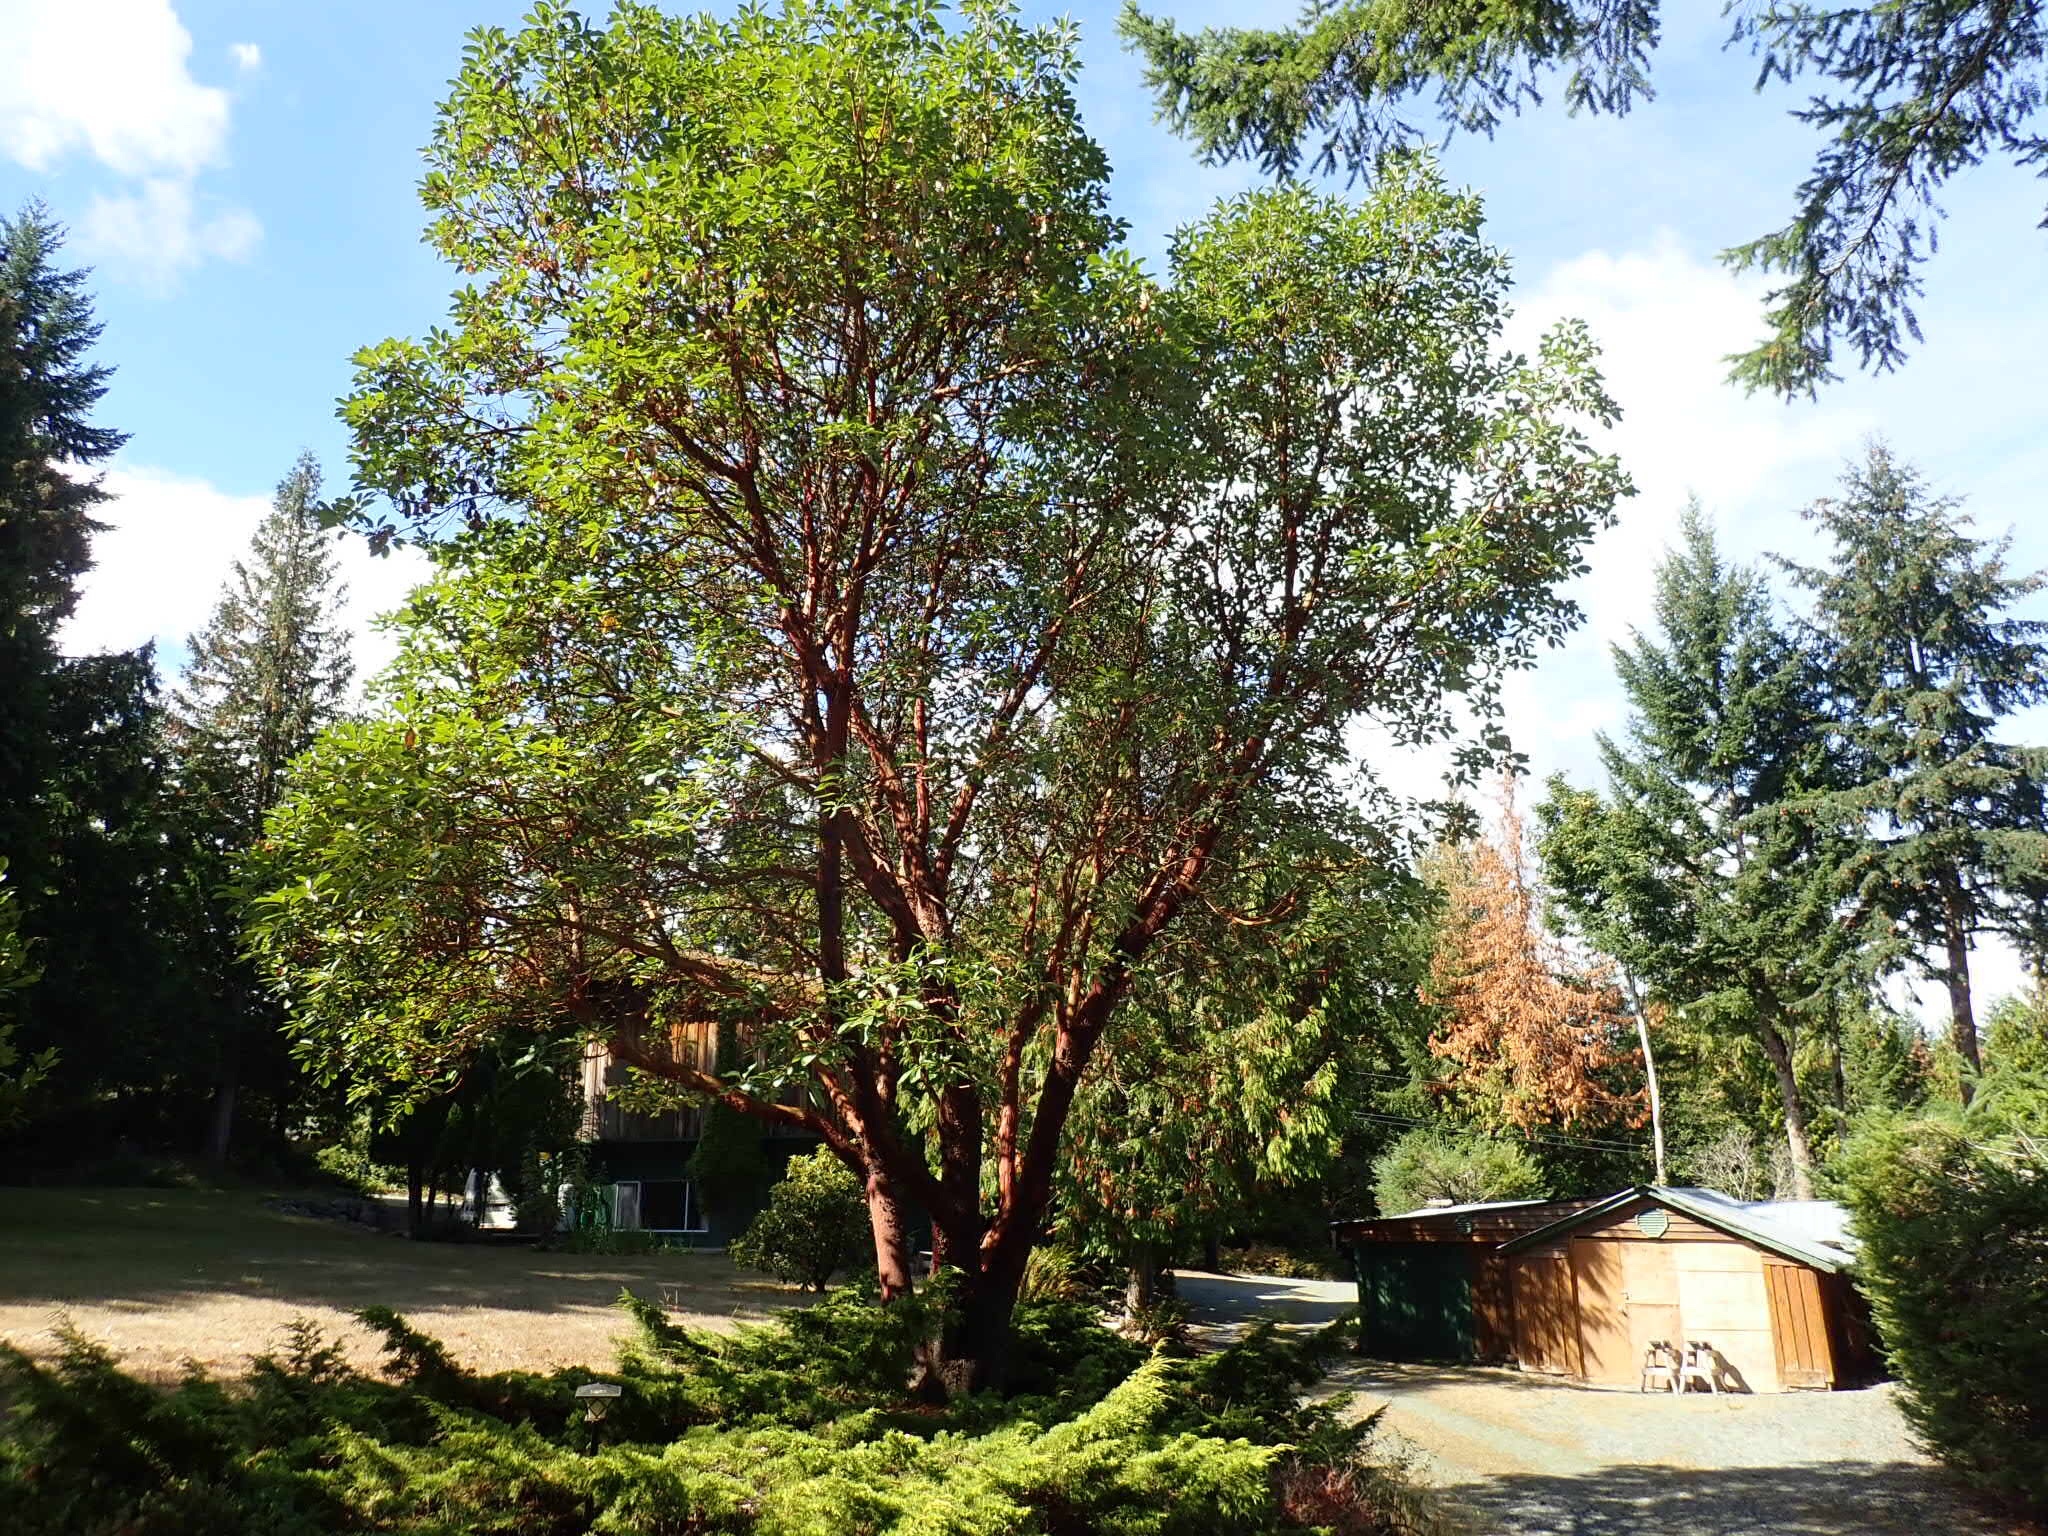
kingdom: Plantae
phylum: Tracheophyta
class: Magnoliopsida
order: Ericales
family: Ericaceae
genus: Arbutus
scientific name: Arbutus menziesii
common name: Pacific madrone
